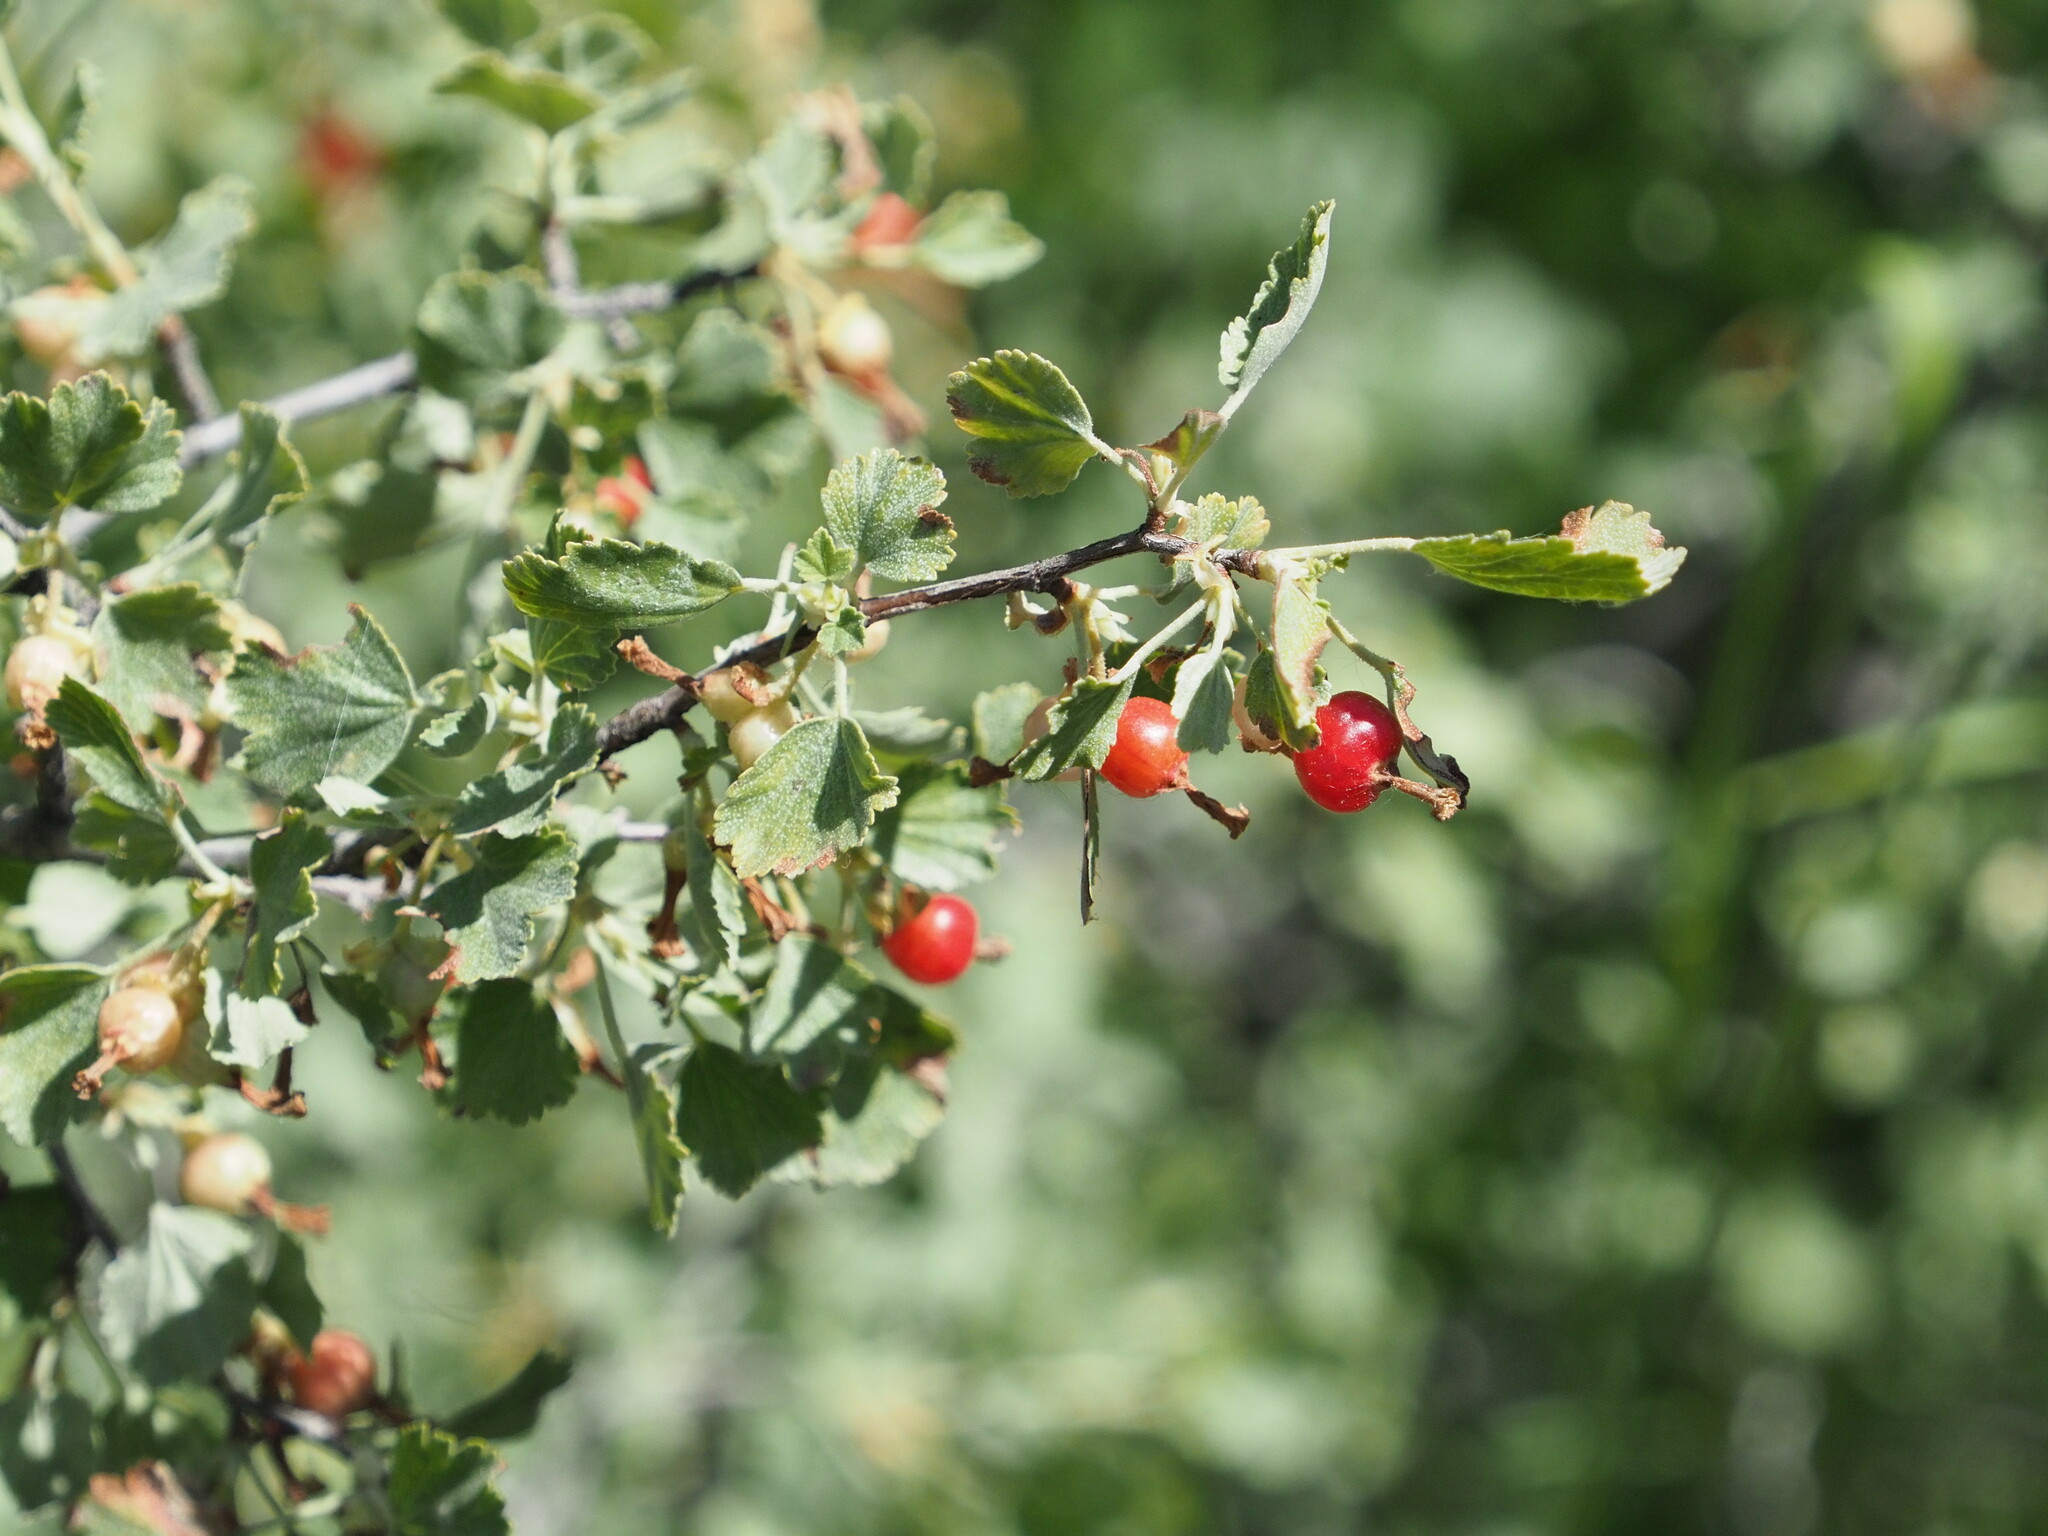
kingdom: Plantae
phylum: Tracheophyta
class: Magnoliopsida
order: Saxifragales
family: Grossulariaceae
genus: Ribes
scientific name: Ribes cereum
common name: Wax currant
